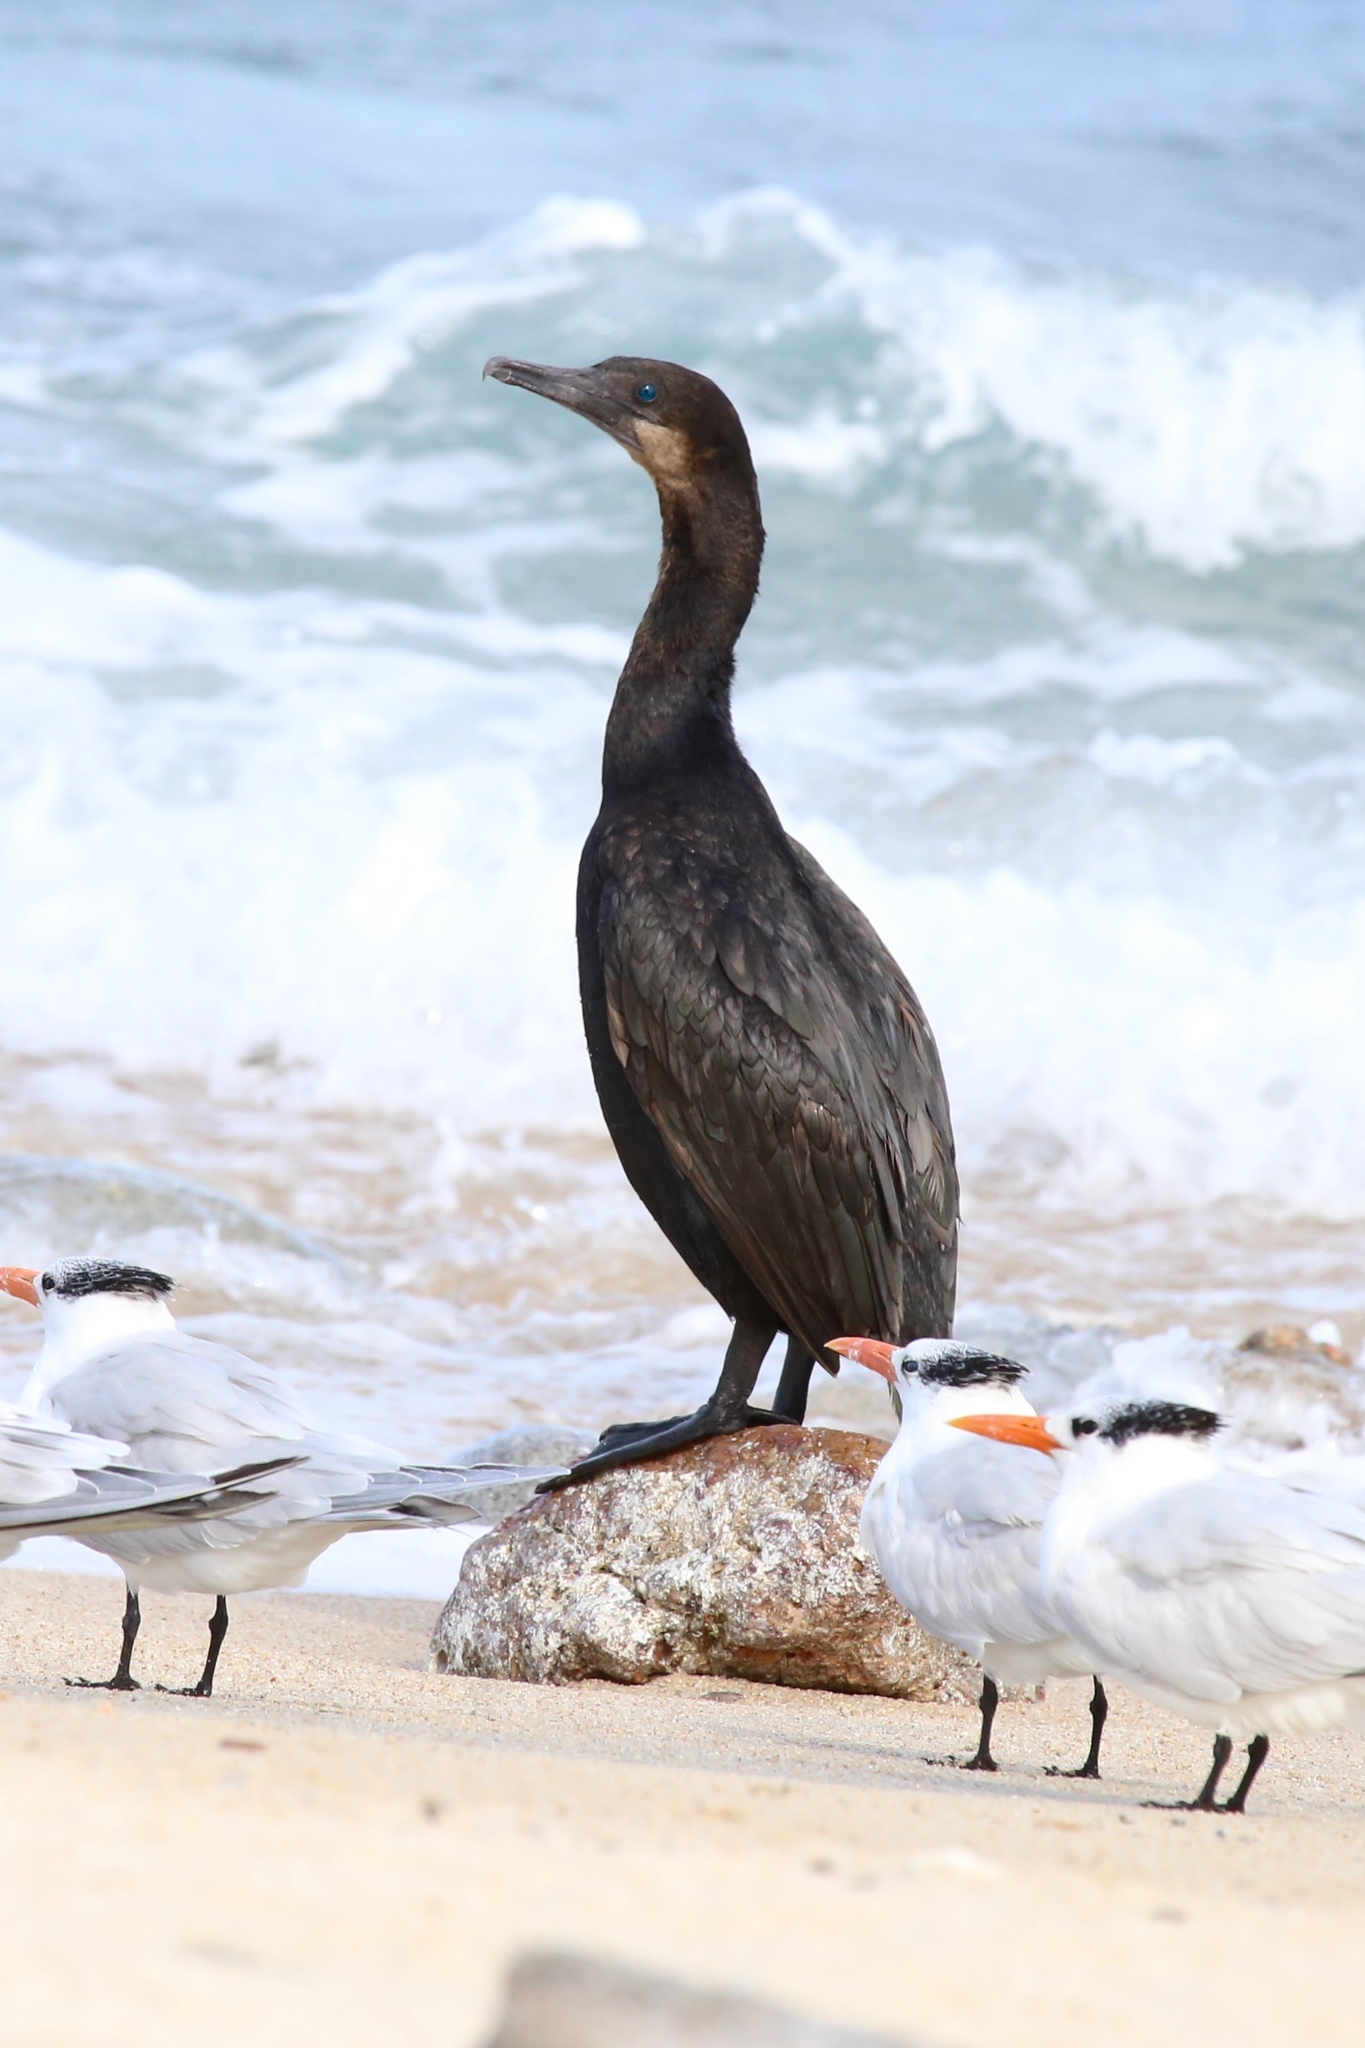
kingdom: Animalia
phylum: Chordata
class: Aves
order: Suliformes
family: Phalacrocoracidae
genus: Urile
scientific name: Urile penicillatus
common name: Brandt's cormorant
